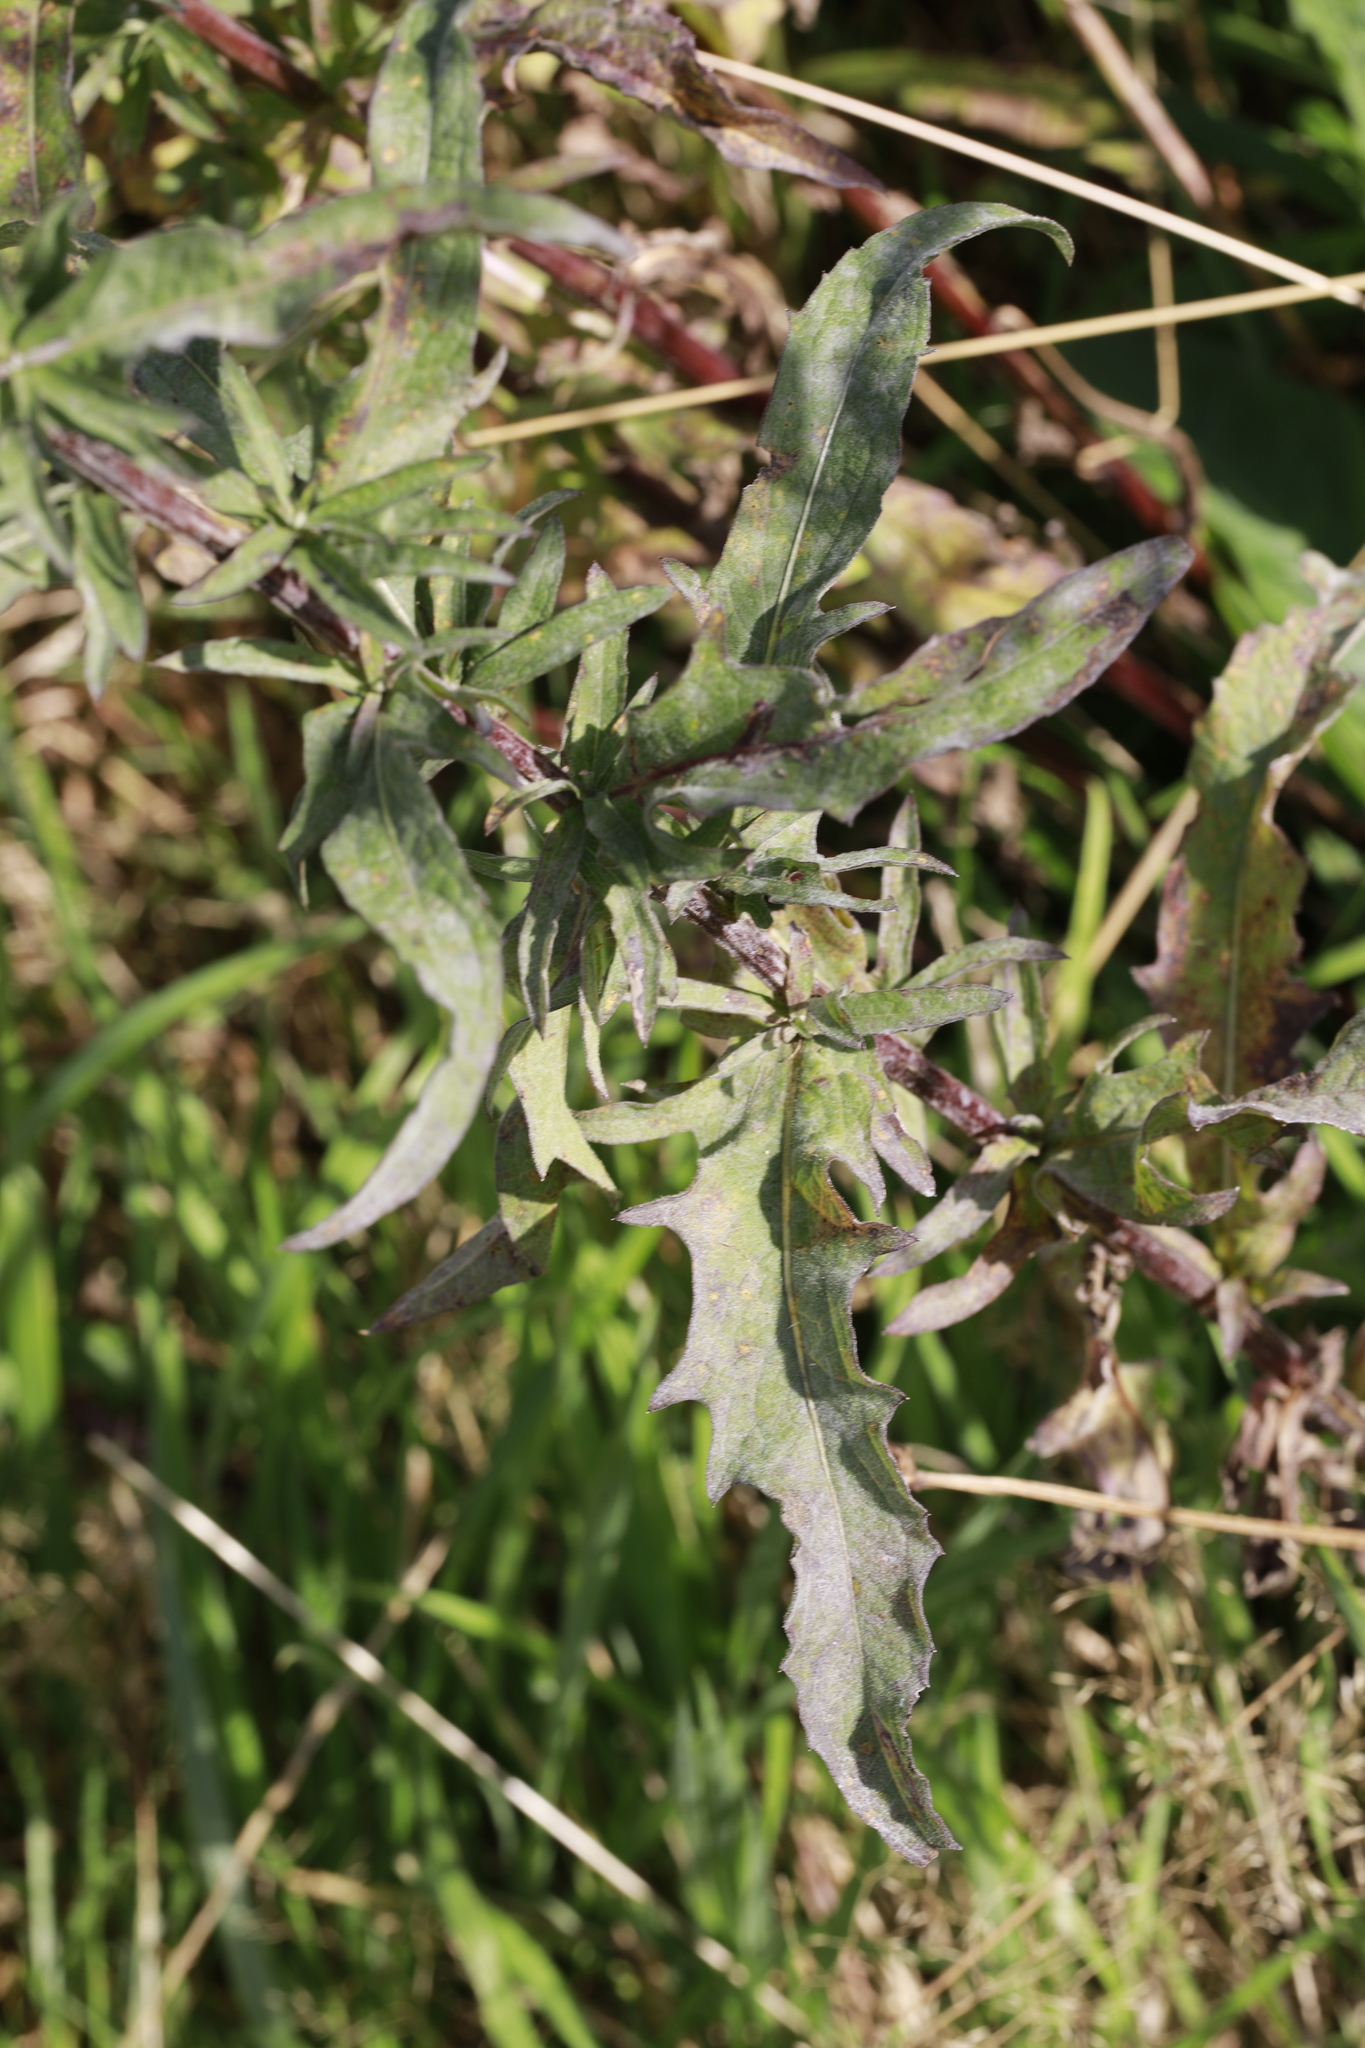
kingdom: Fungi
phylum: Ascomycota
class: Leotiomycetes
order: Helotiales
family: Erysiphaceae
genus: Golovinomyces
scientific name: Golovinomyces depressus
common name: Burdock mildew
